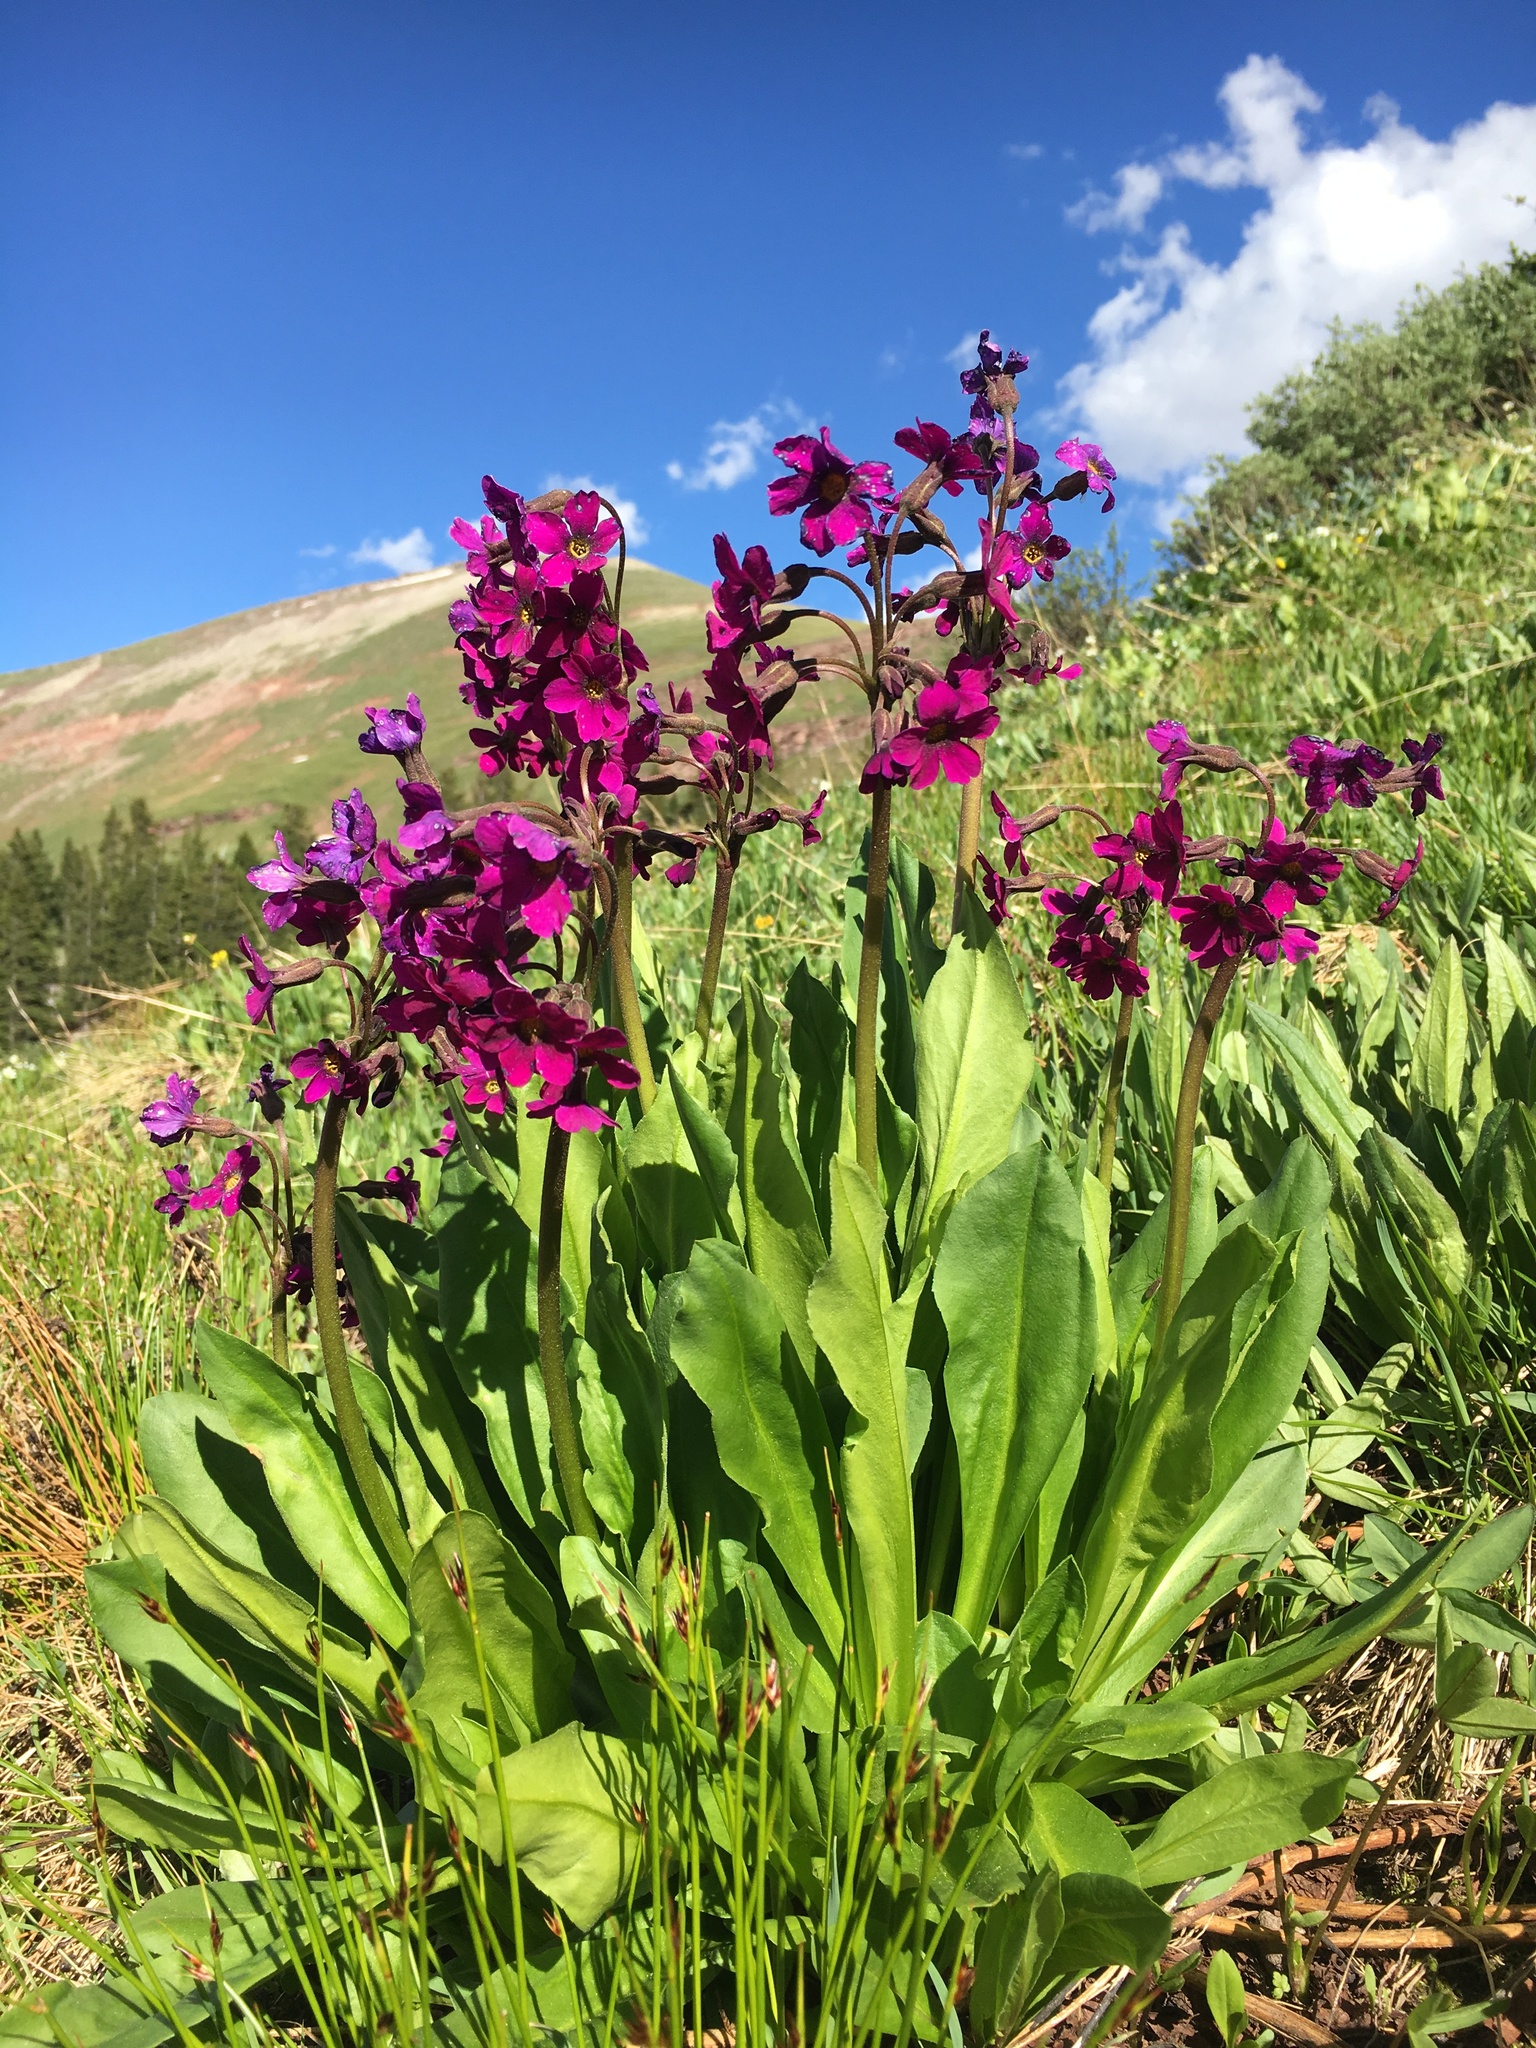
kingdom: Plantae
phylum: Tracheophyta
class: Magnoliopsida
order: Ericales
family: Primulaceae
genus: Primula
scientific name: Primula parryi
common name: Parry's primrose
